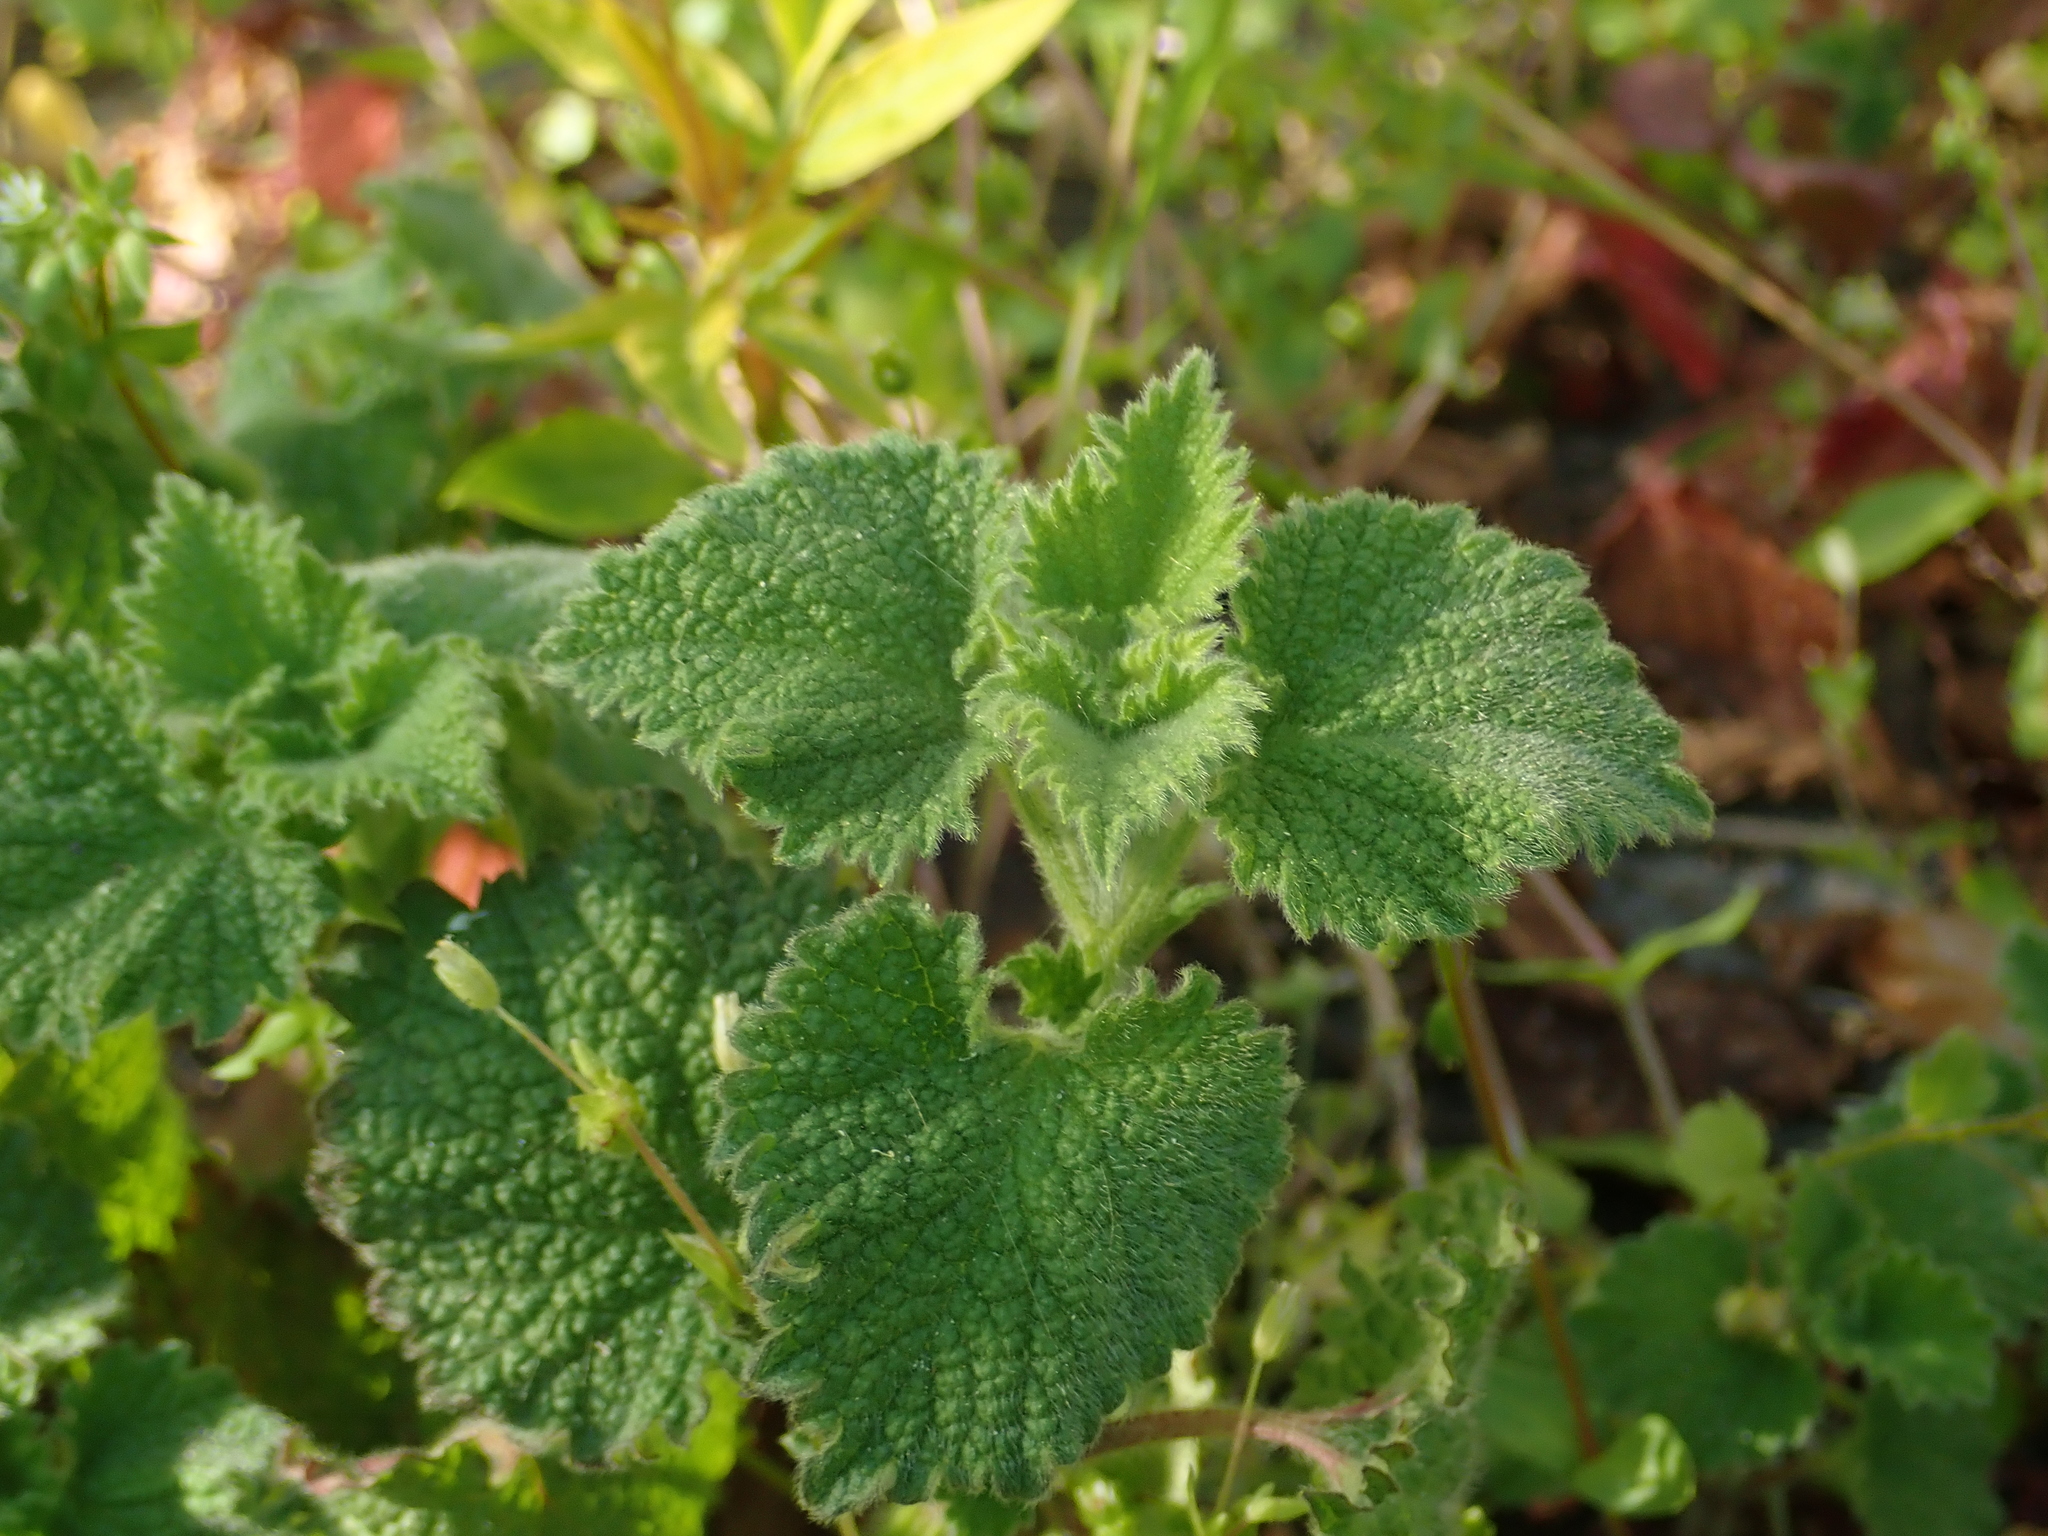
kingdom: Plantae
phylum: Tracheophyta
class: Magnoliopsida
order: Lamiales
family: Lamiaceae
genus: Ballota
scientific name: Ballota nigra
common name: Black horehound
